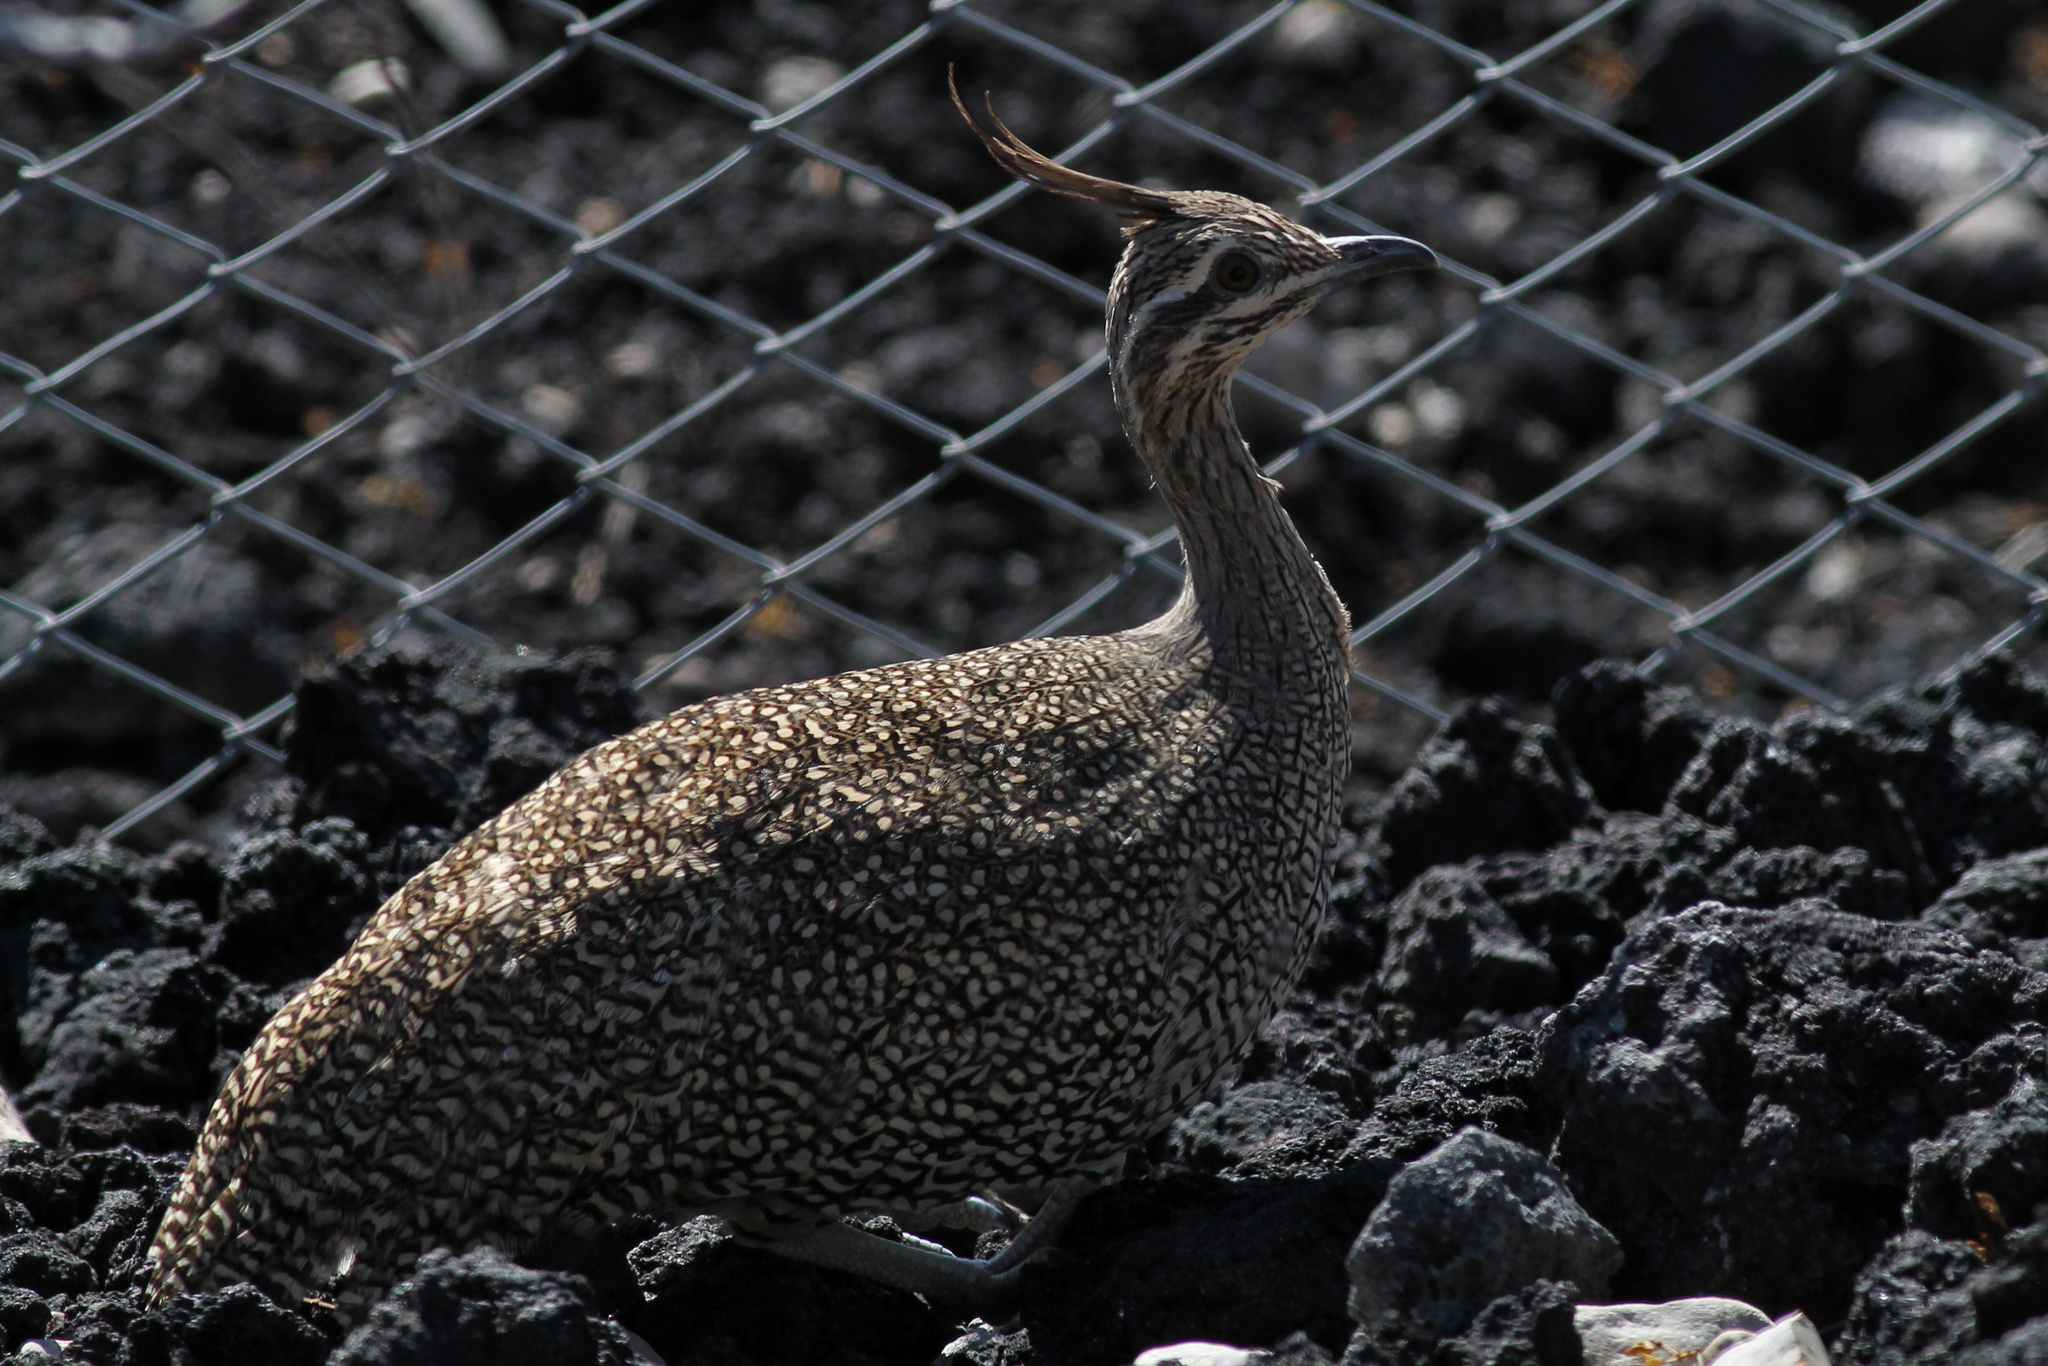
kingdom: Animalia
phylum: Chordata
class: Aves
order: Tinamiformes
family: Tinamidae
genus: Eudromia
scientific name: Eudromia elegans
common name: Elegant crested tinamou
